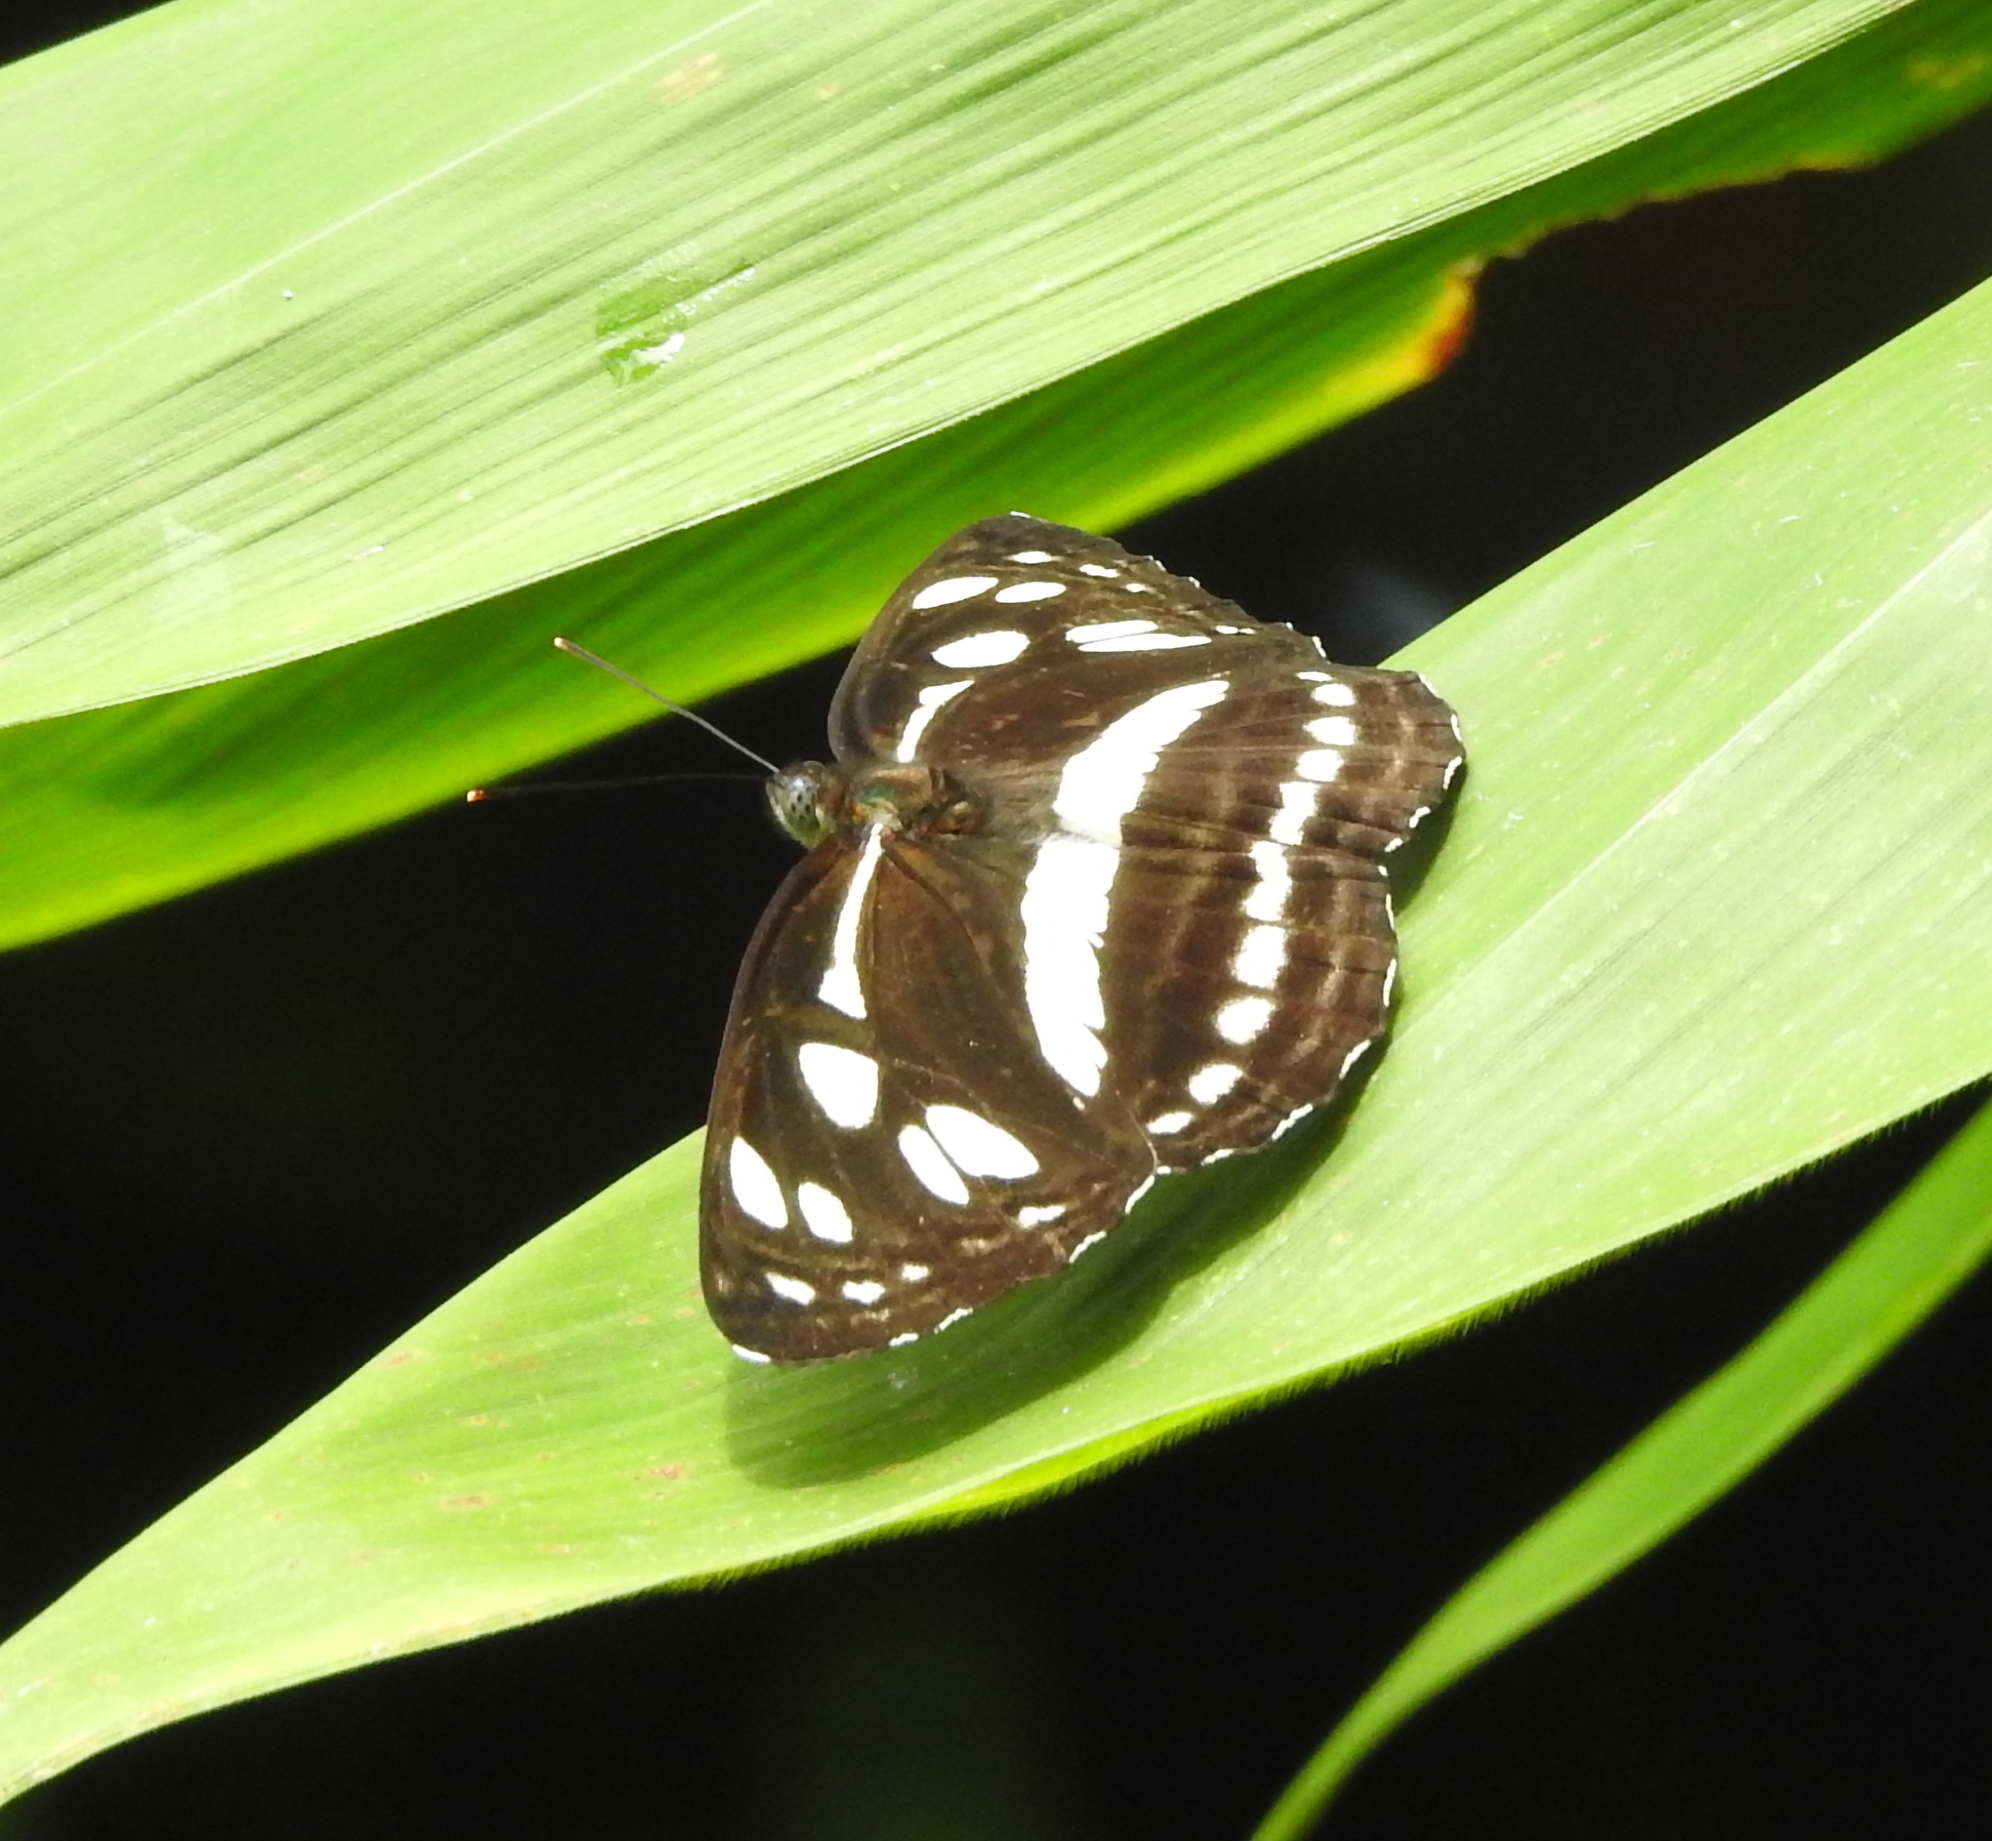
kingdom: Animalia
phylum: Arthropoda
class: Insecta
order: Lepidoptera
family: Nymphalidae
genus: Phaedyma
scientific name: Phaedyma columella
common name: Short banded sailer
